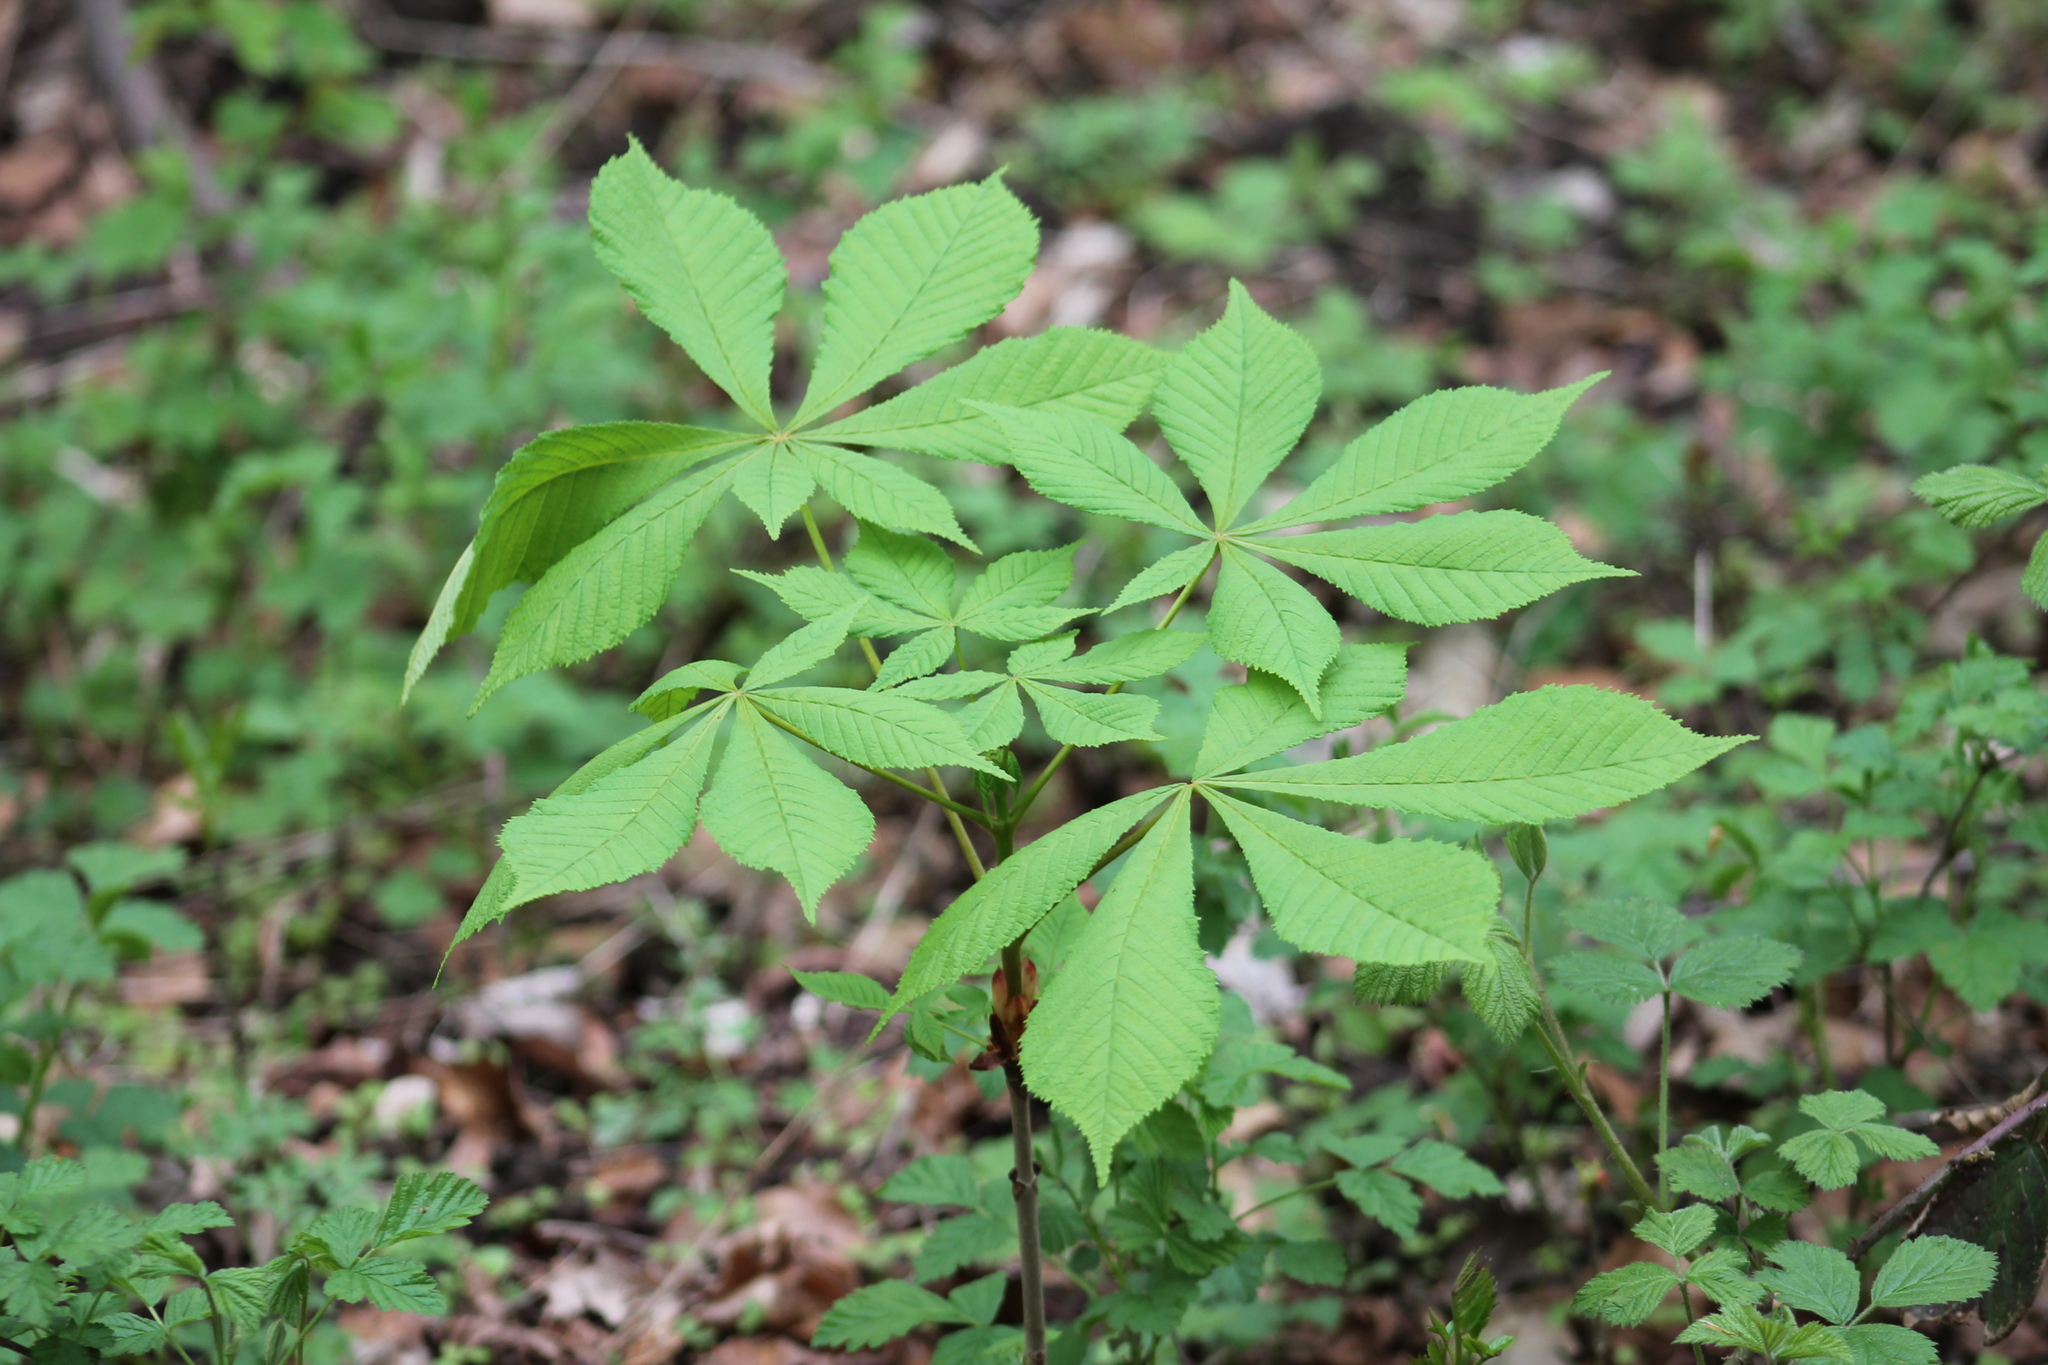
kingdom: Plantae
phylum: Tracheophyta
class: Magnoliopsida
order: Sapindales
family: Sapindaceae
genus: Aesculus
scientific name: Aesculus hippocastanum
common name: Horse-chestnut
